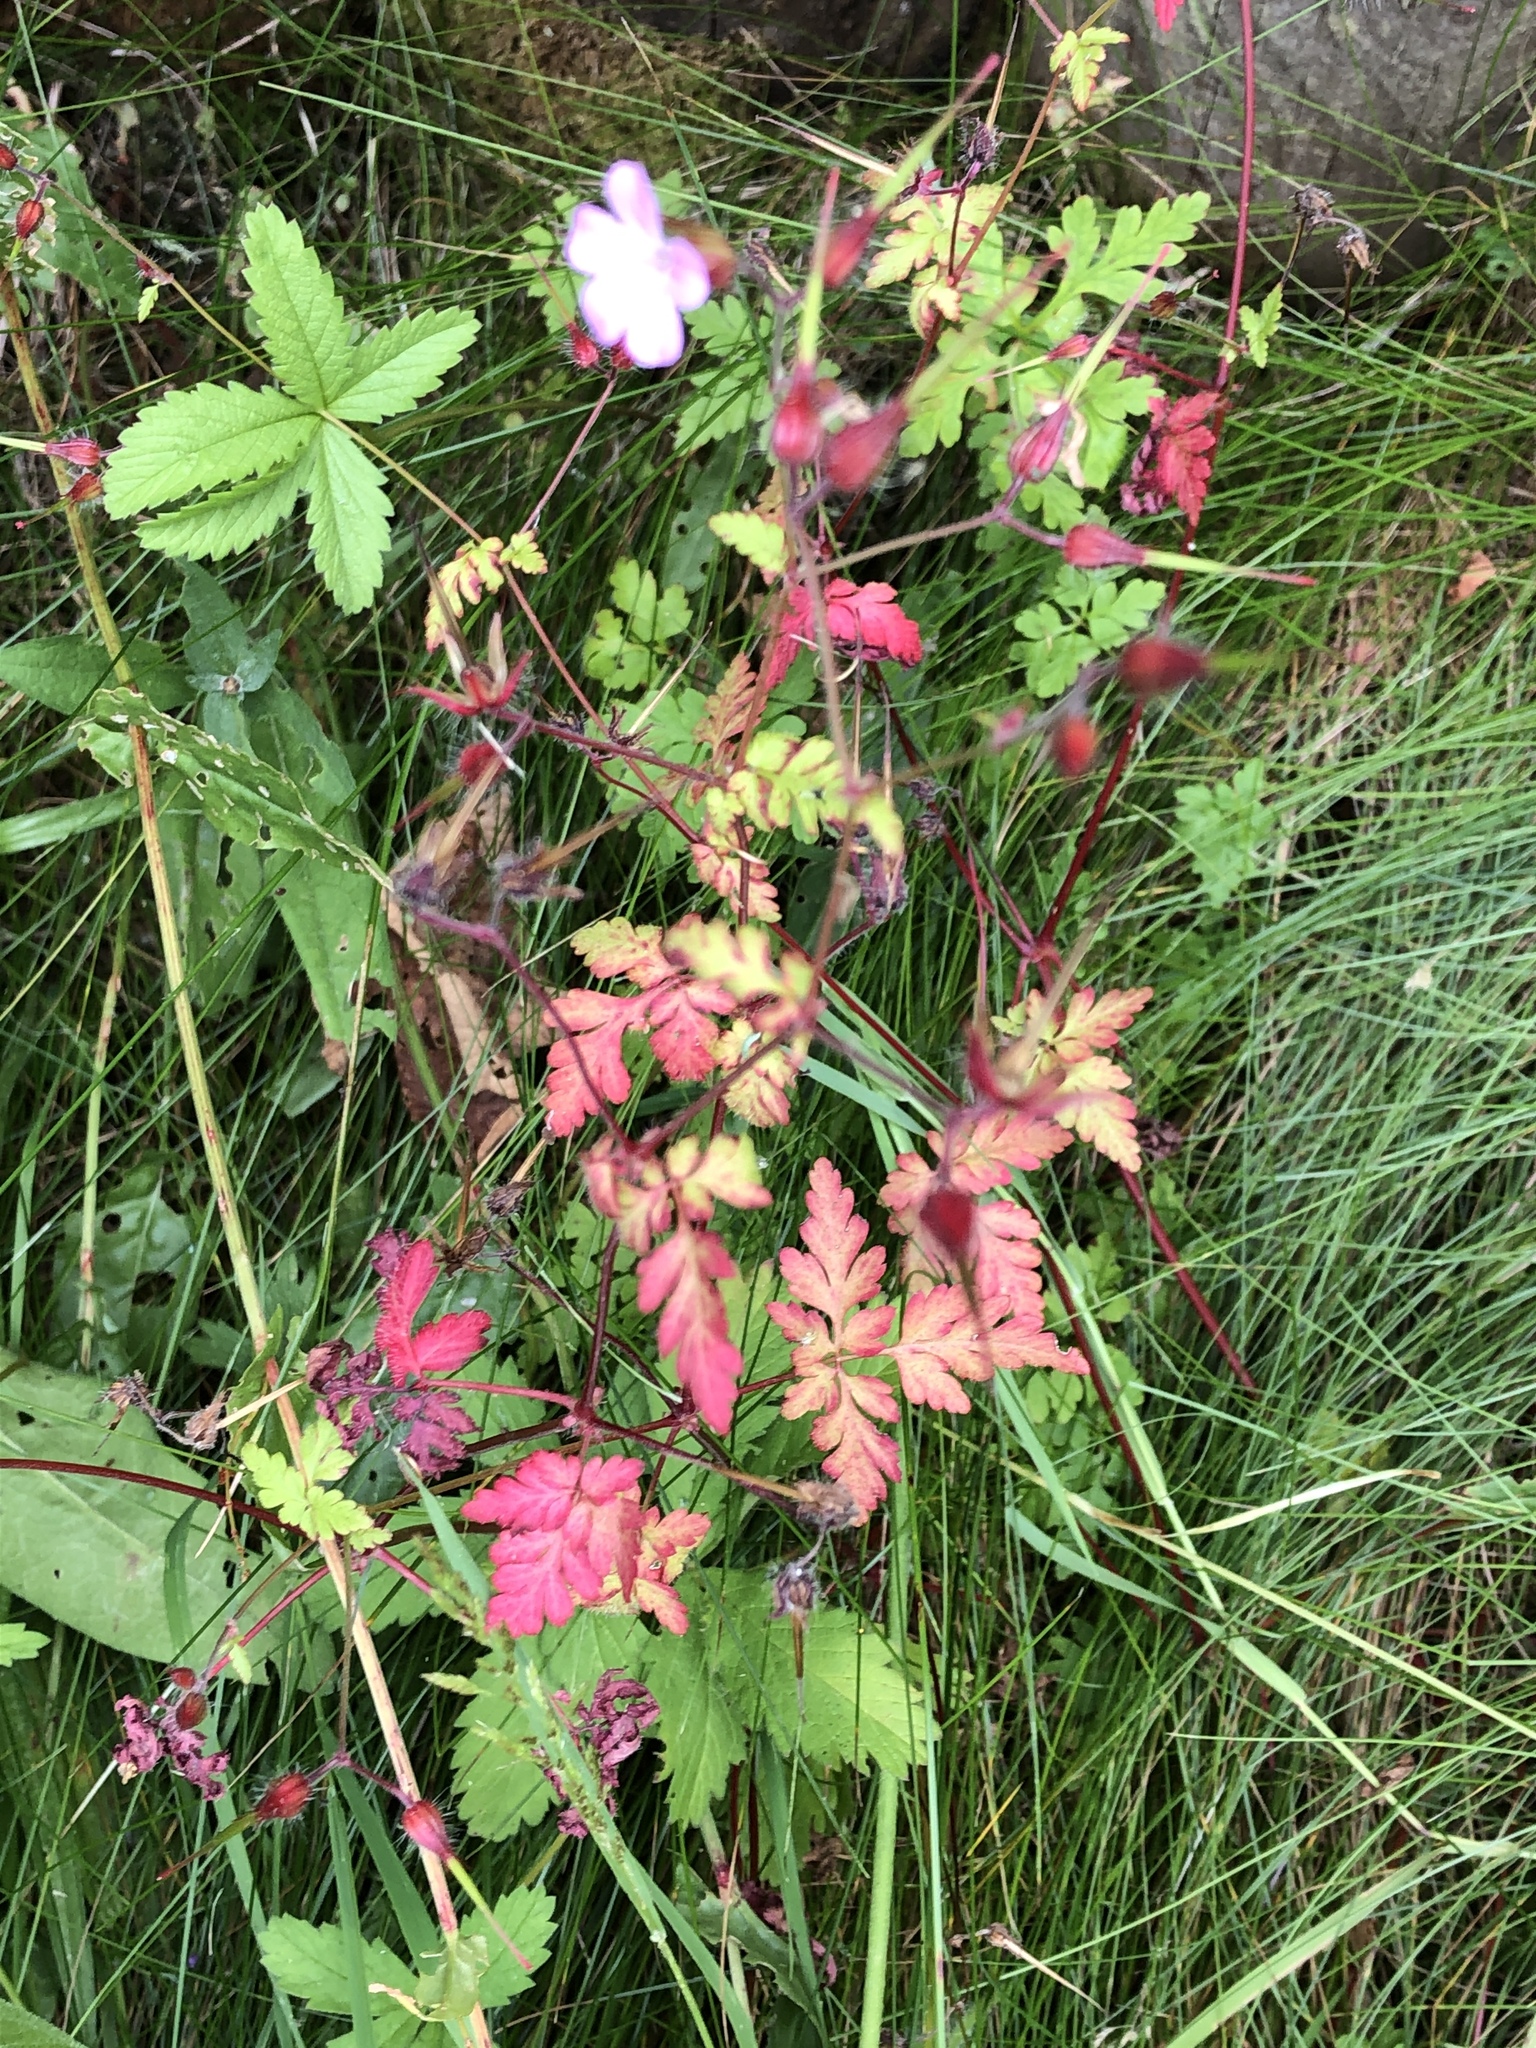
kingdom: Plantae
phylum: Tracheophyta
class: Magnoliopsida
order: Geraniales
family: Geraniaceae
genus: Geranium
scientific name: Geranium robertianum
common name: Herb-robert
